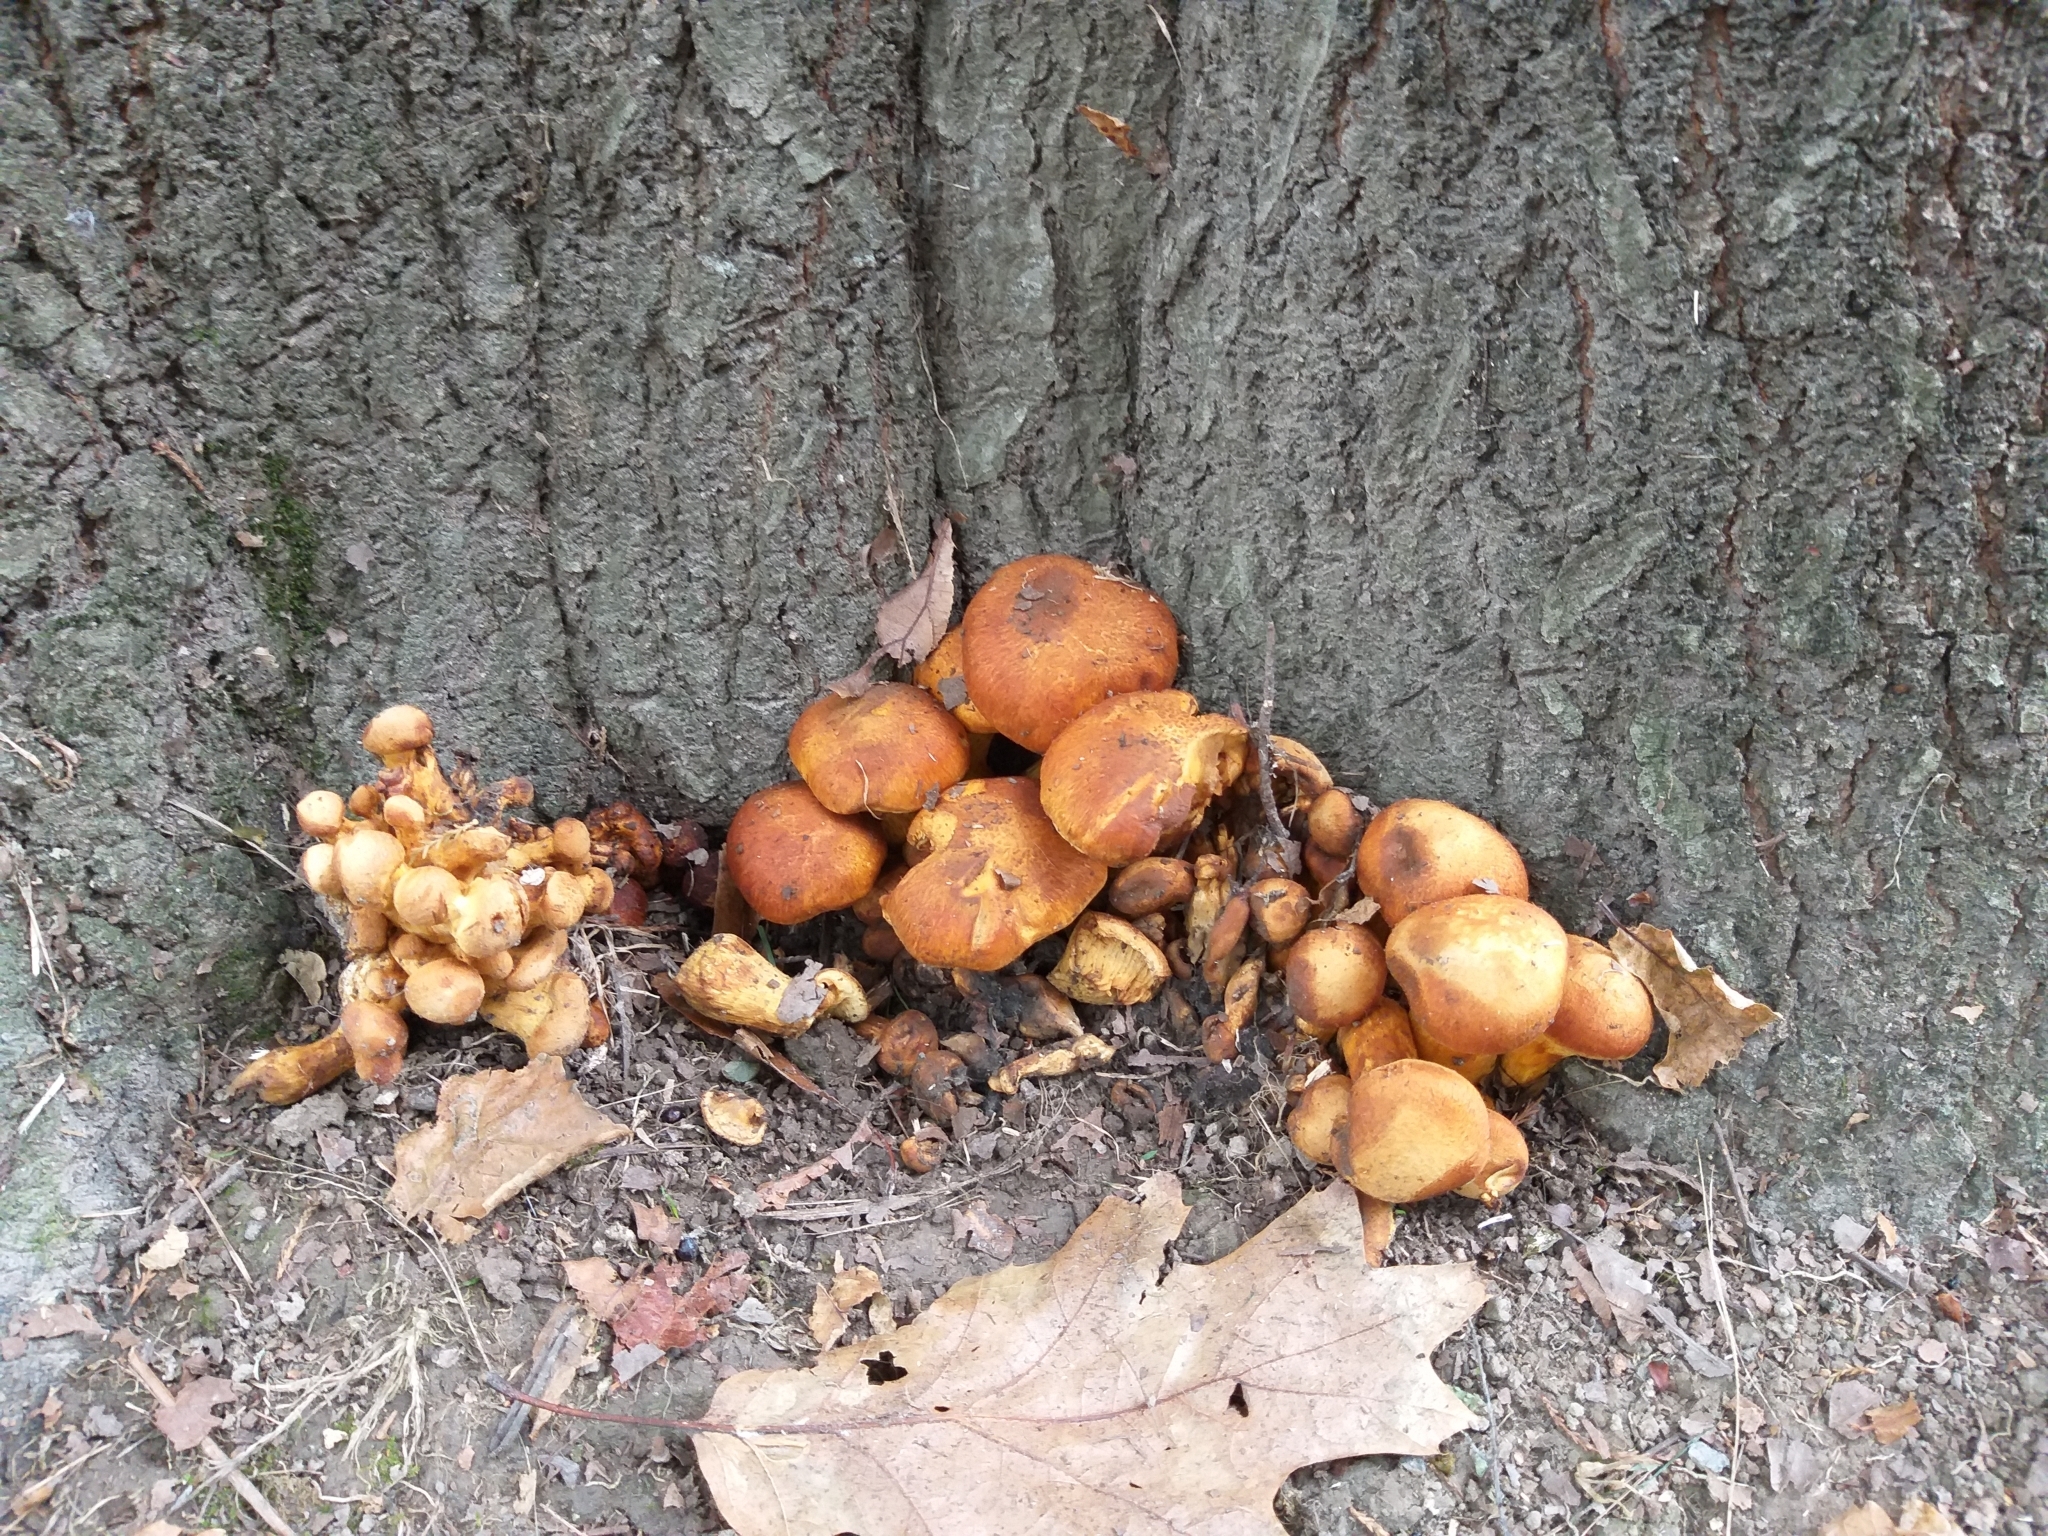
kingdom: Fungi
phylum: Basidiomycota
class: Agaricomycetes
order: Agaricales
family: Hymenogastraceae
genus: Gymnopilus
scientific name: Gymnopilus junonius
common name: Spectacular rustgill
